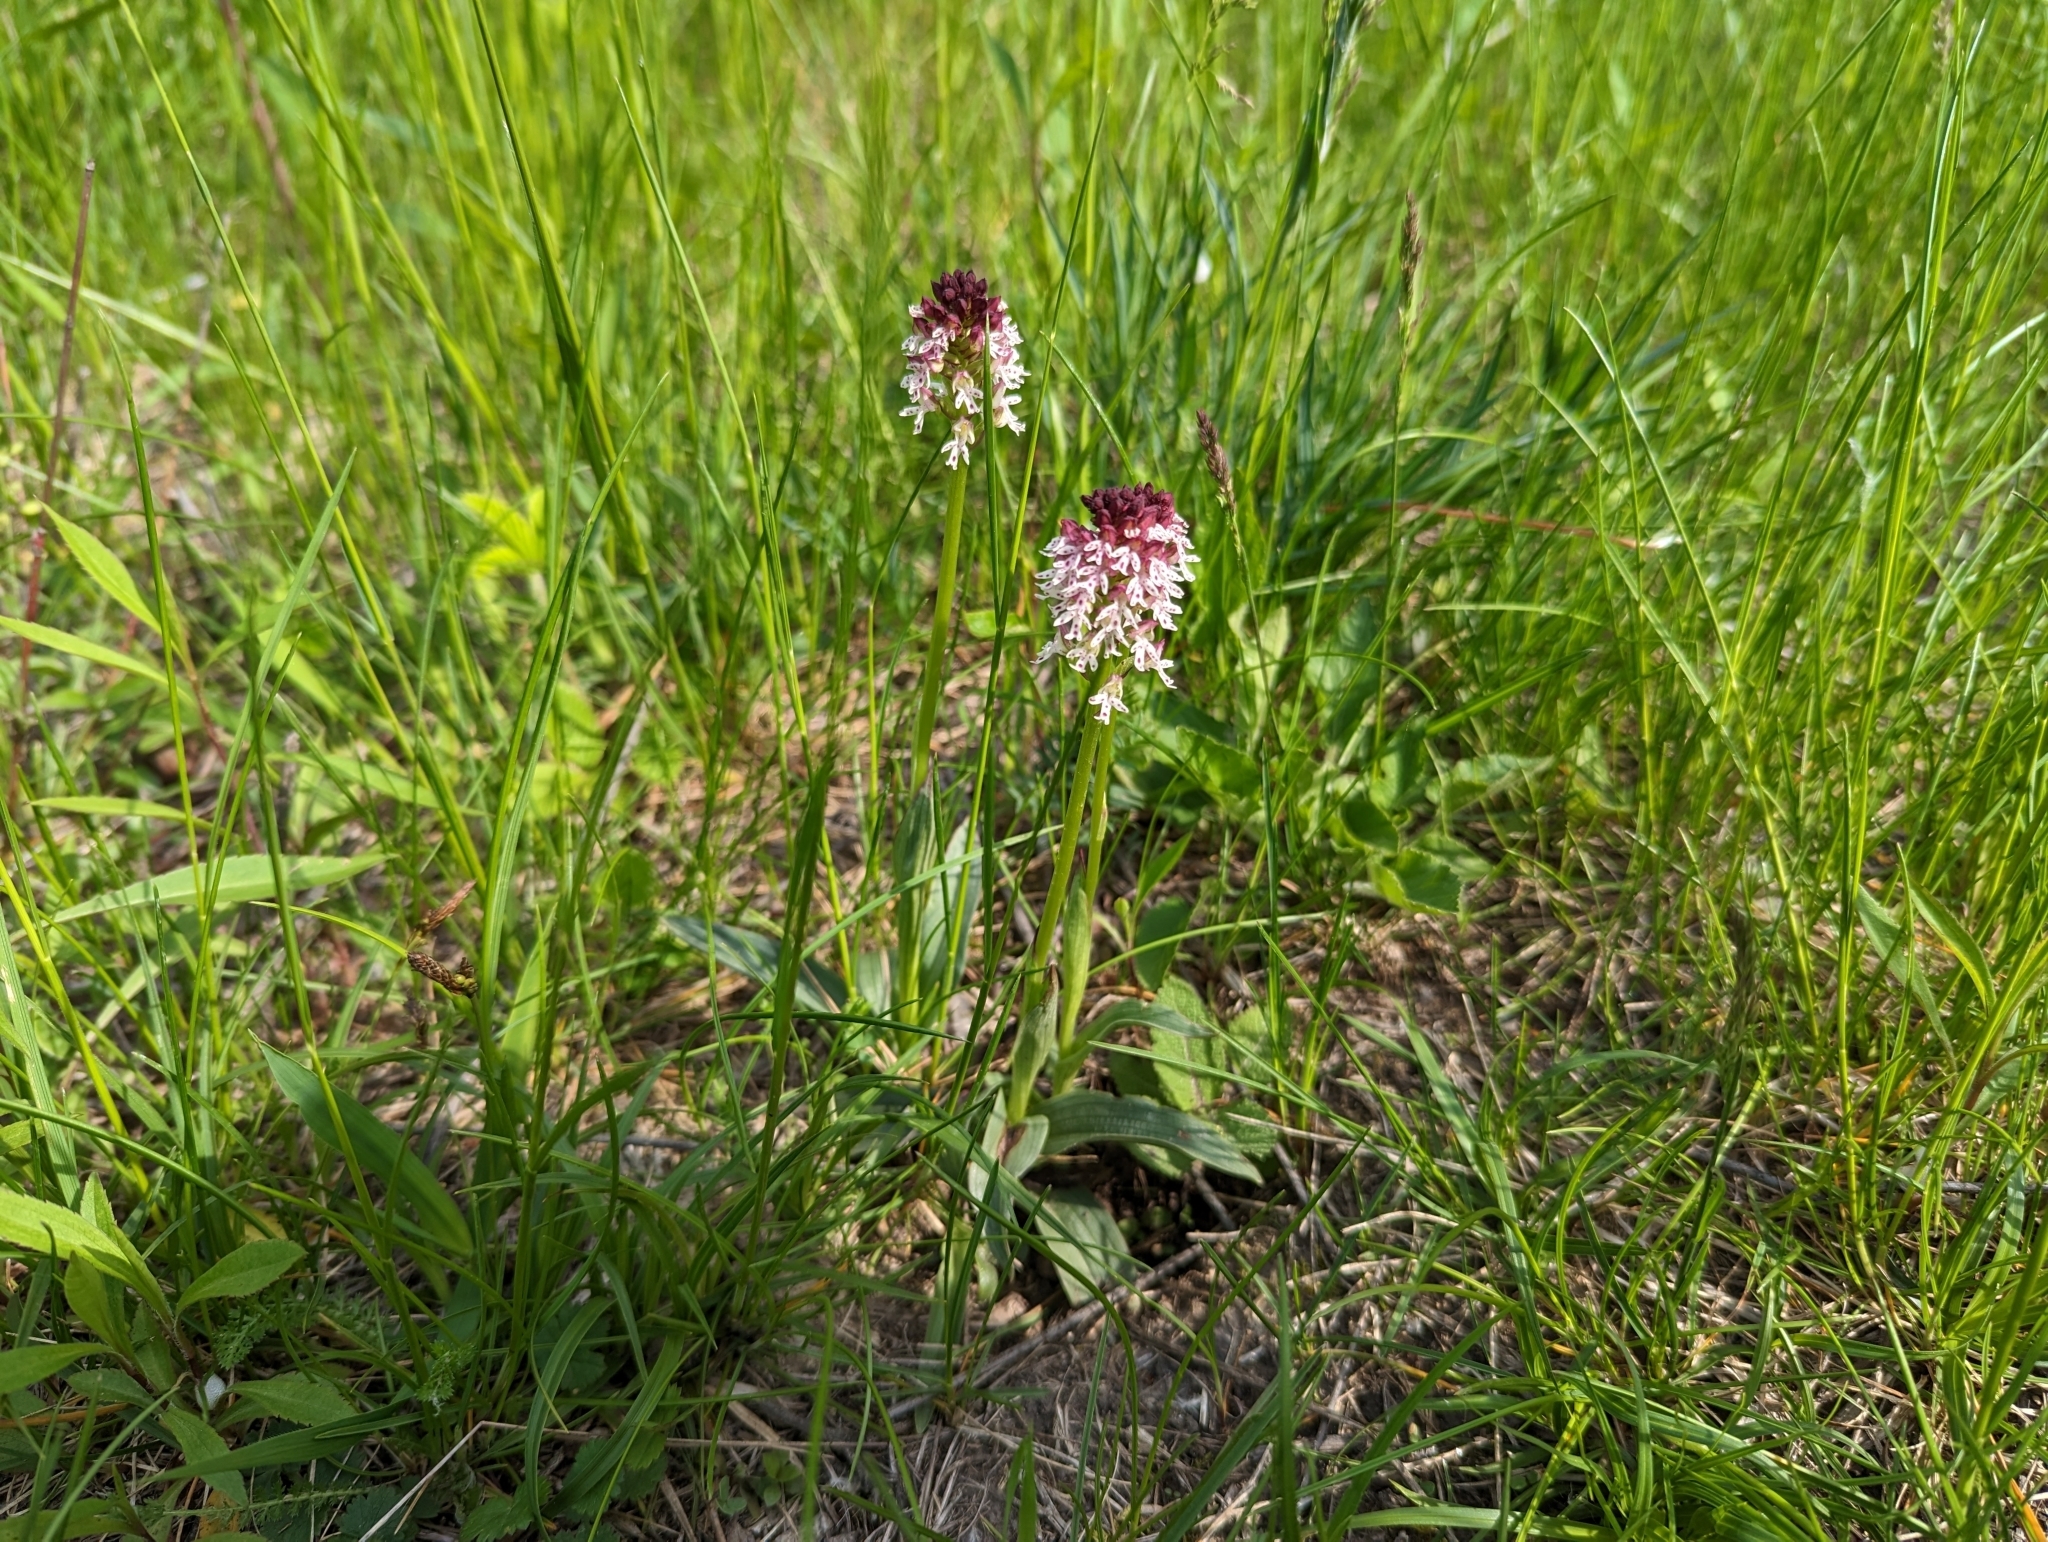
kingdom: Plantae
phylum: Tracheophyta
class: Liliopsida
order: Asparagales
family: Orchidaceae
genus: Neotinea
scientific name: Neotinea ustulata
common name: Burnt orchid
